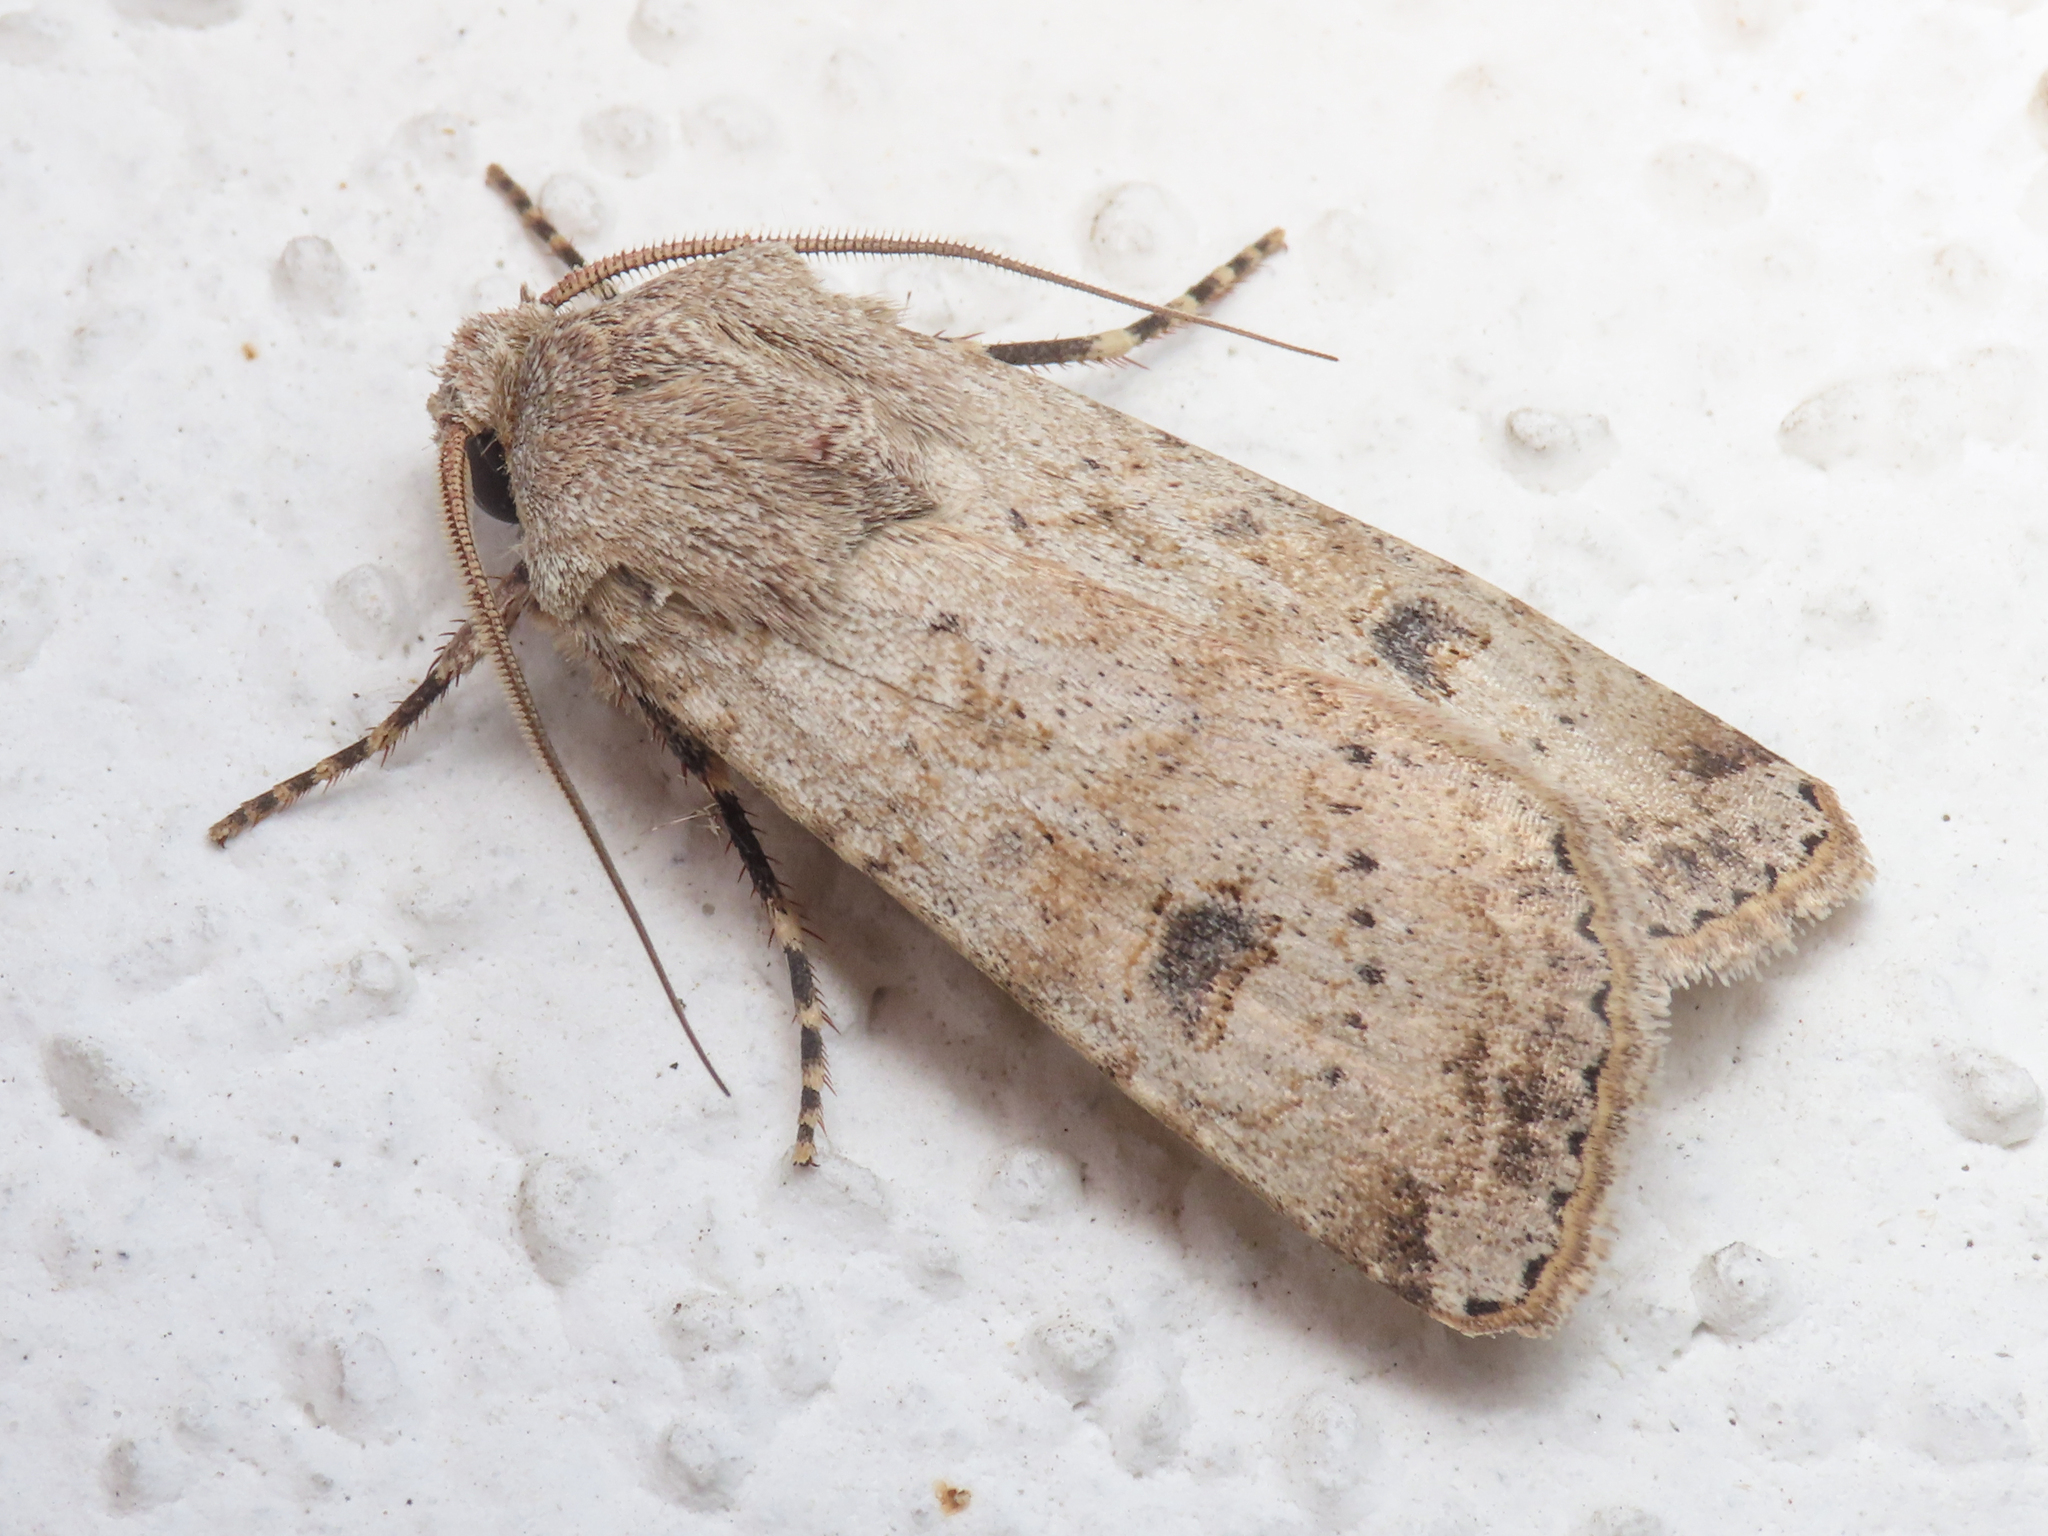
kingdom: Animalia
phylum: Arthropoda
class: Insecta
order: Lepidoptera
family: Noctuidae
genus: Agrotis
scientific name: Agrotis trux
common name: Crescent dart
